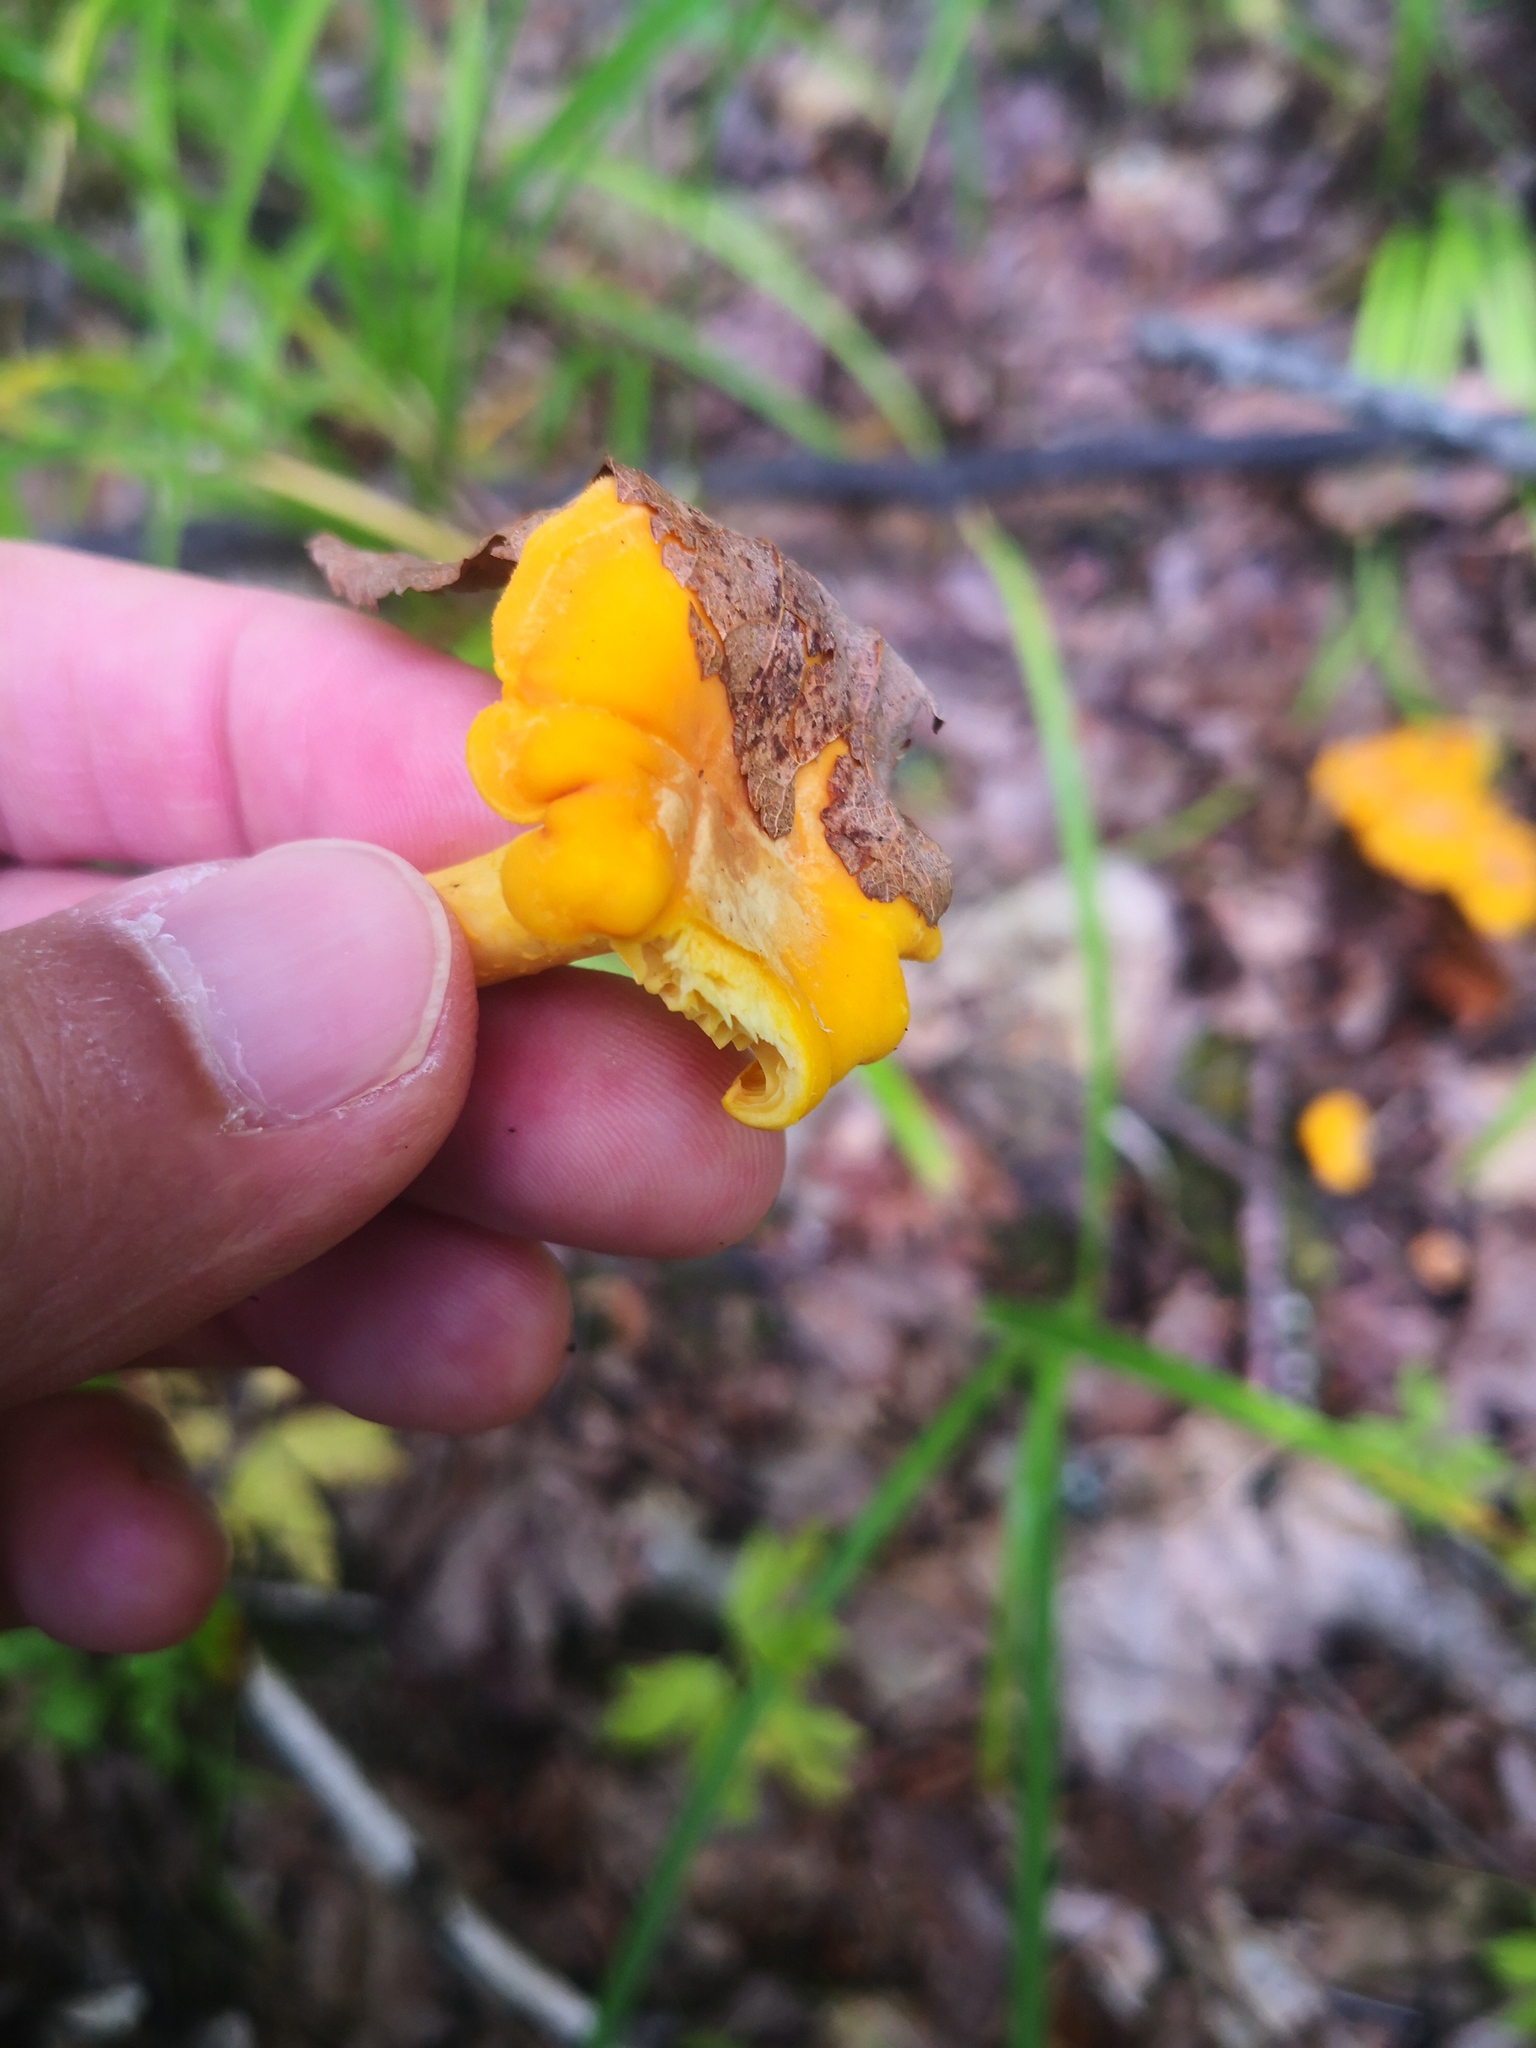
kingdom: Fungi
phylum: Basidiomycota
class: Agaricomycetes
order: Cantharellales
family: Hydnaceae
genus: Cantharellus
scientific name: Cantharellus cibarius
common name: Chanterelle
